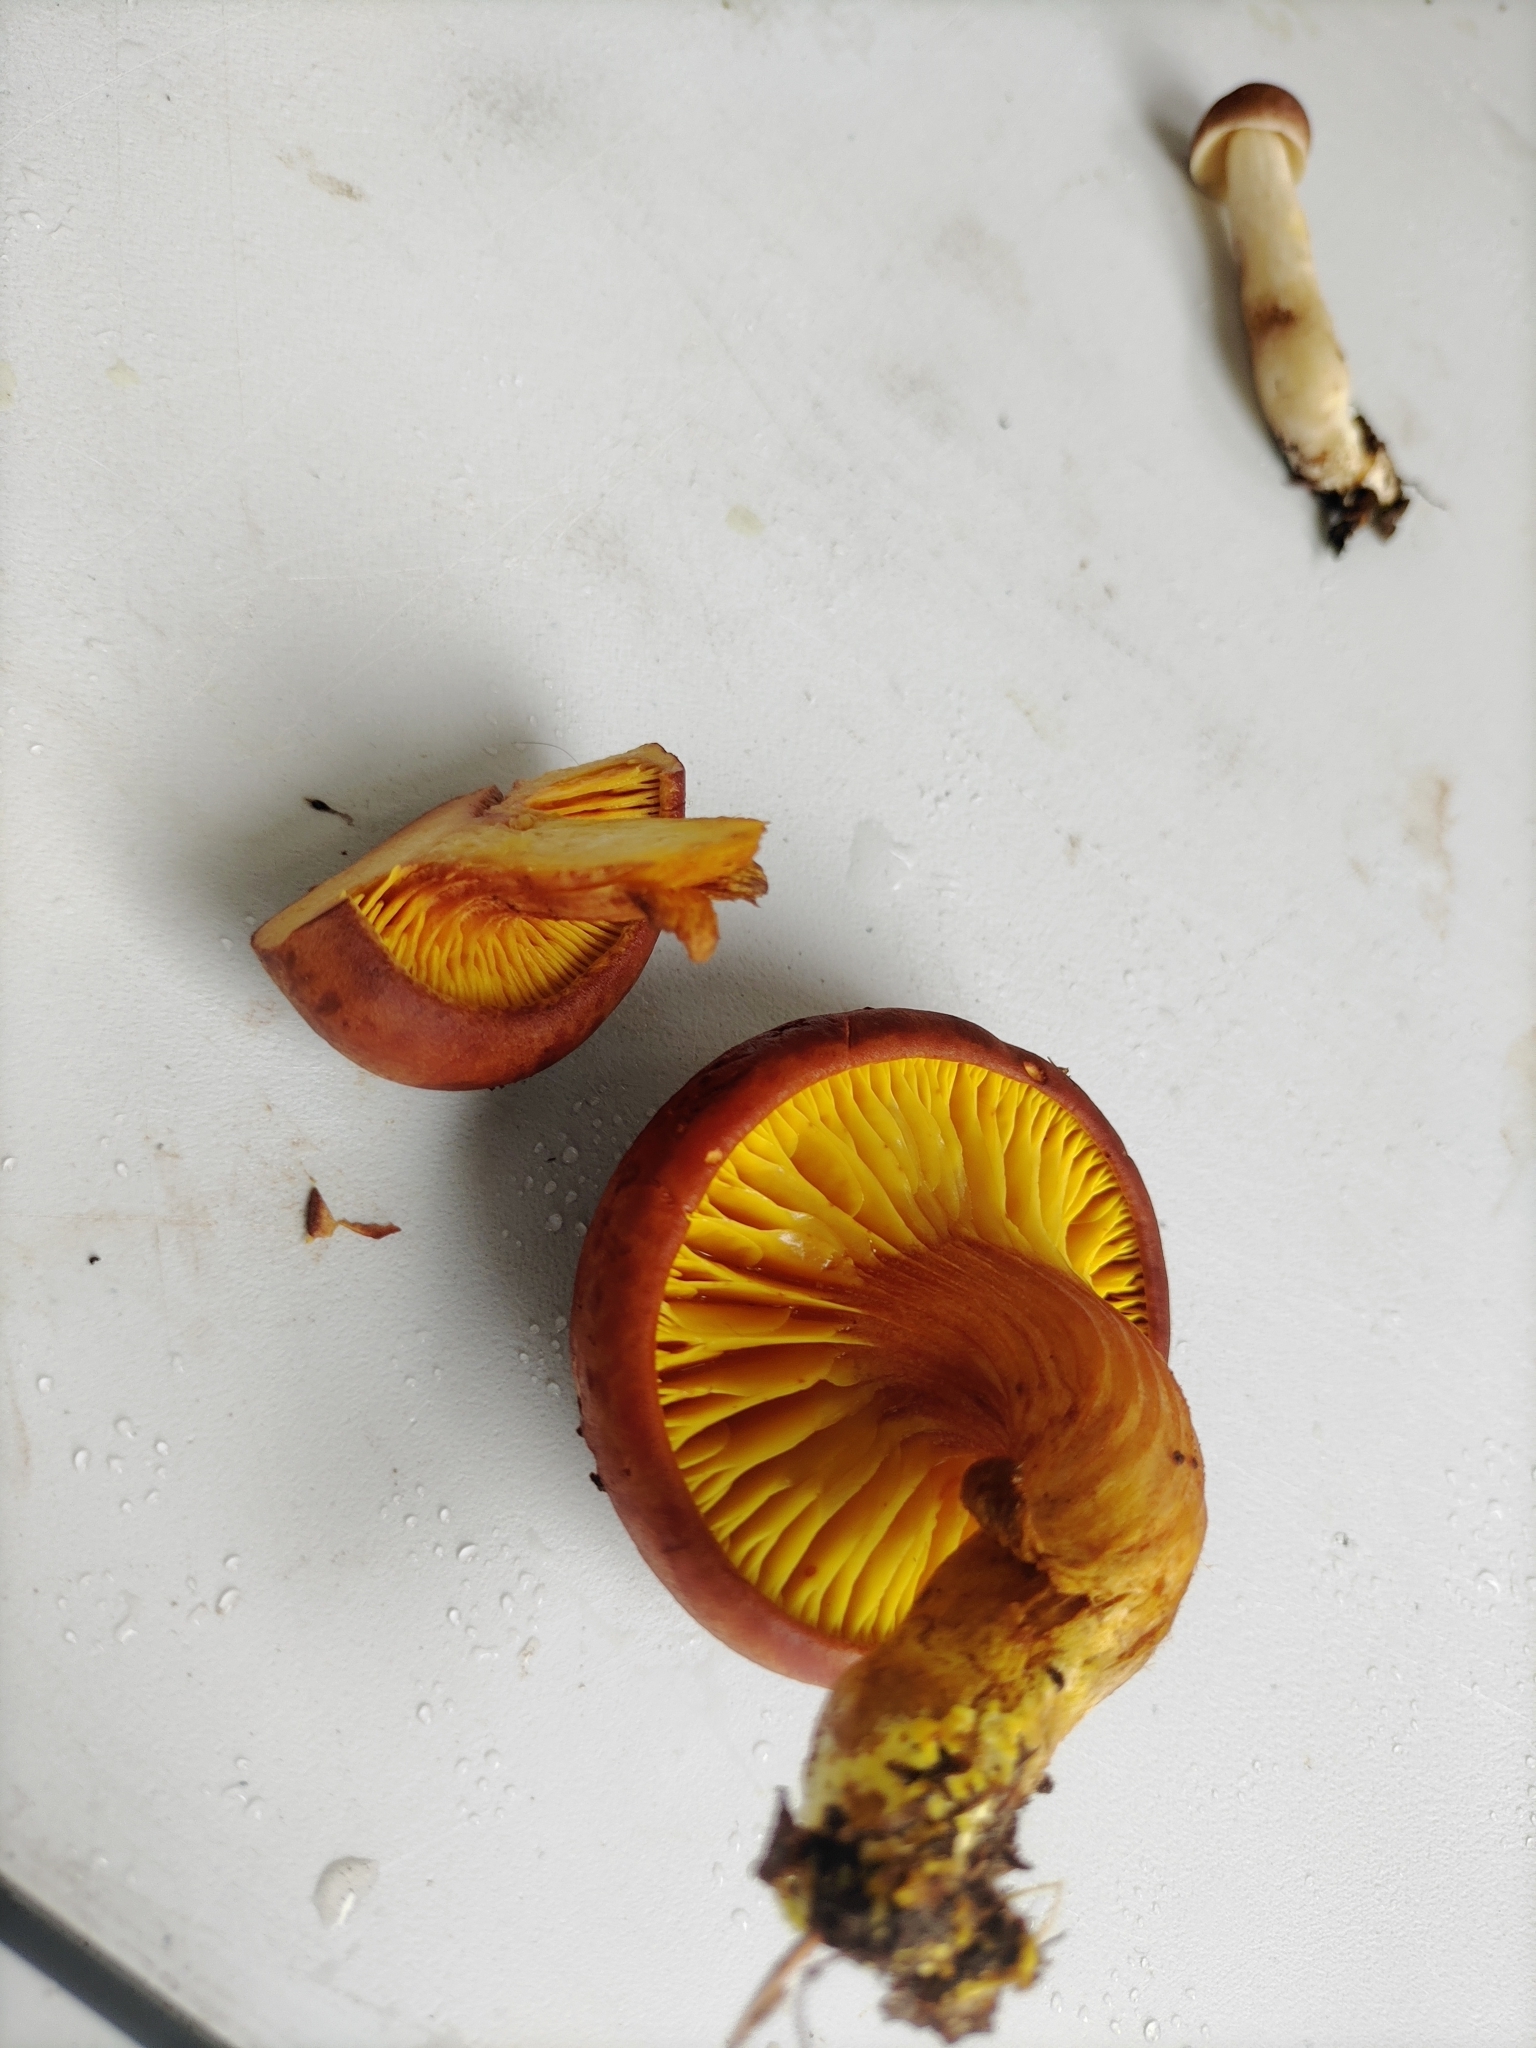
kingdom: Fungi
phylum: Basidiomycota
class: Agaricomycetes
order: Boletales
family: Boletaceae
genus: Phylloporus
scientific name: Phylloporus rhodoxanthus
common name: Golden gilled bolete
